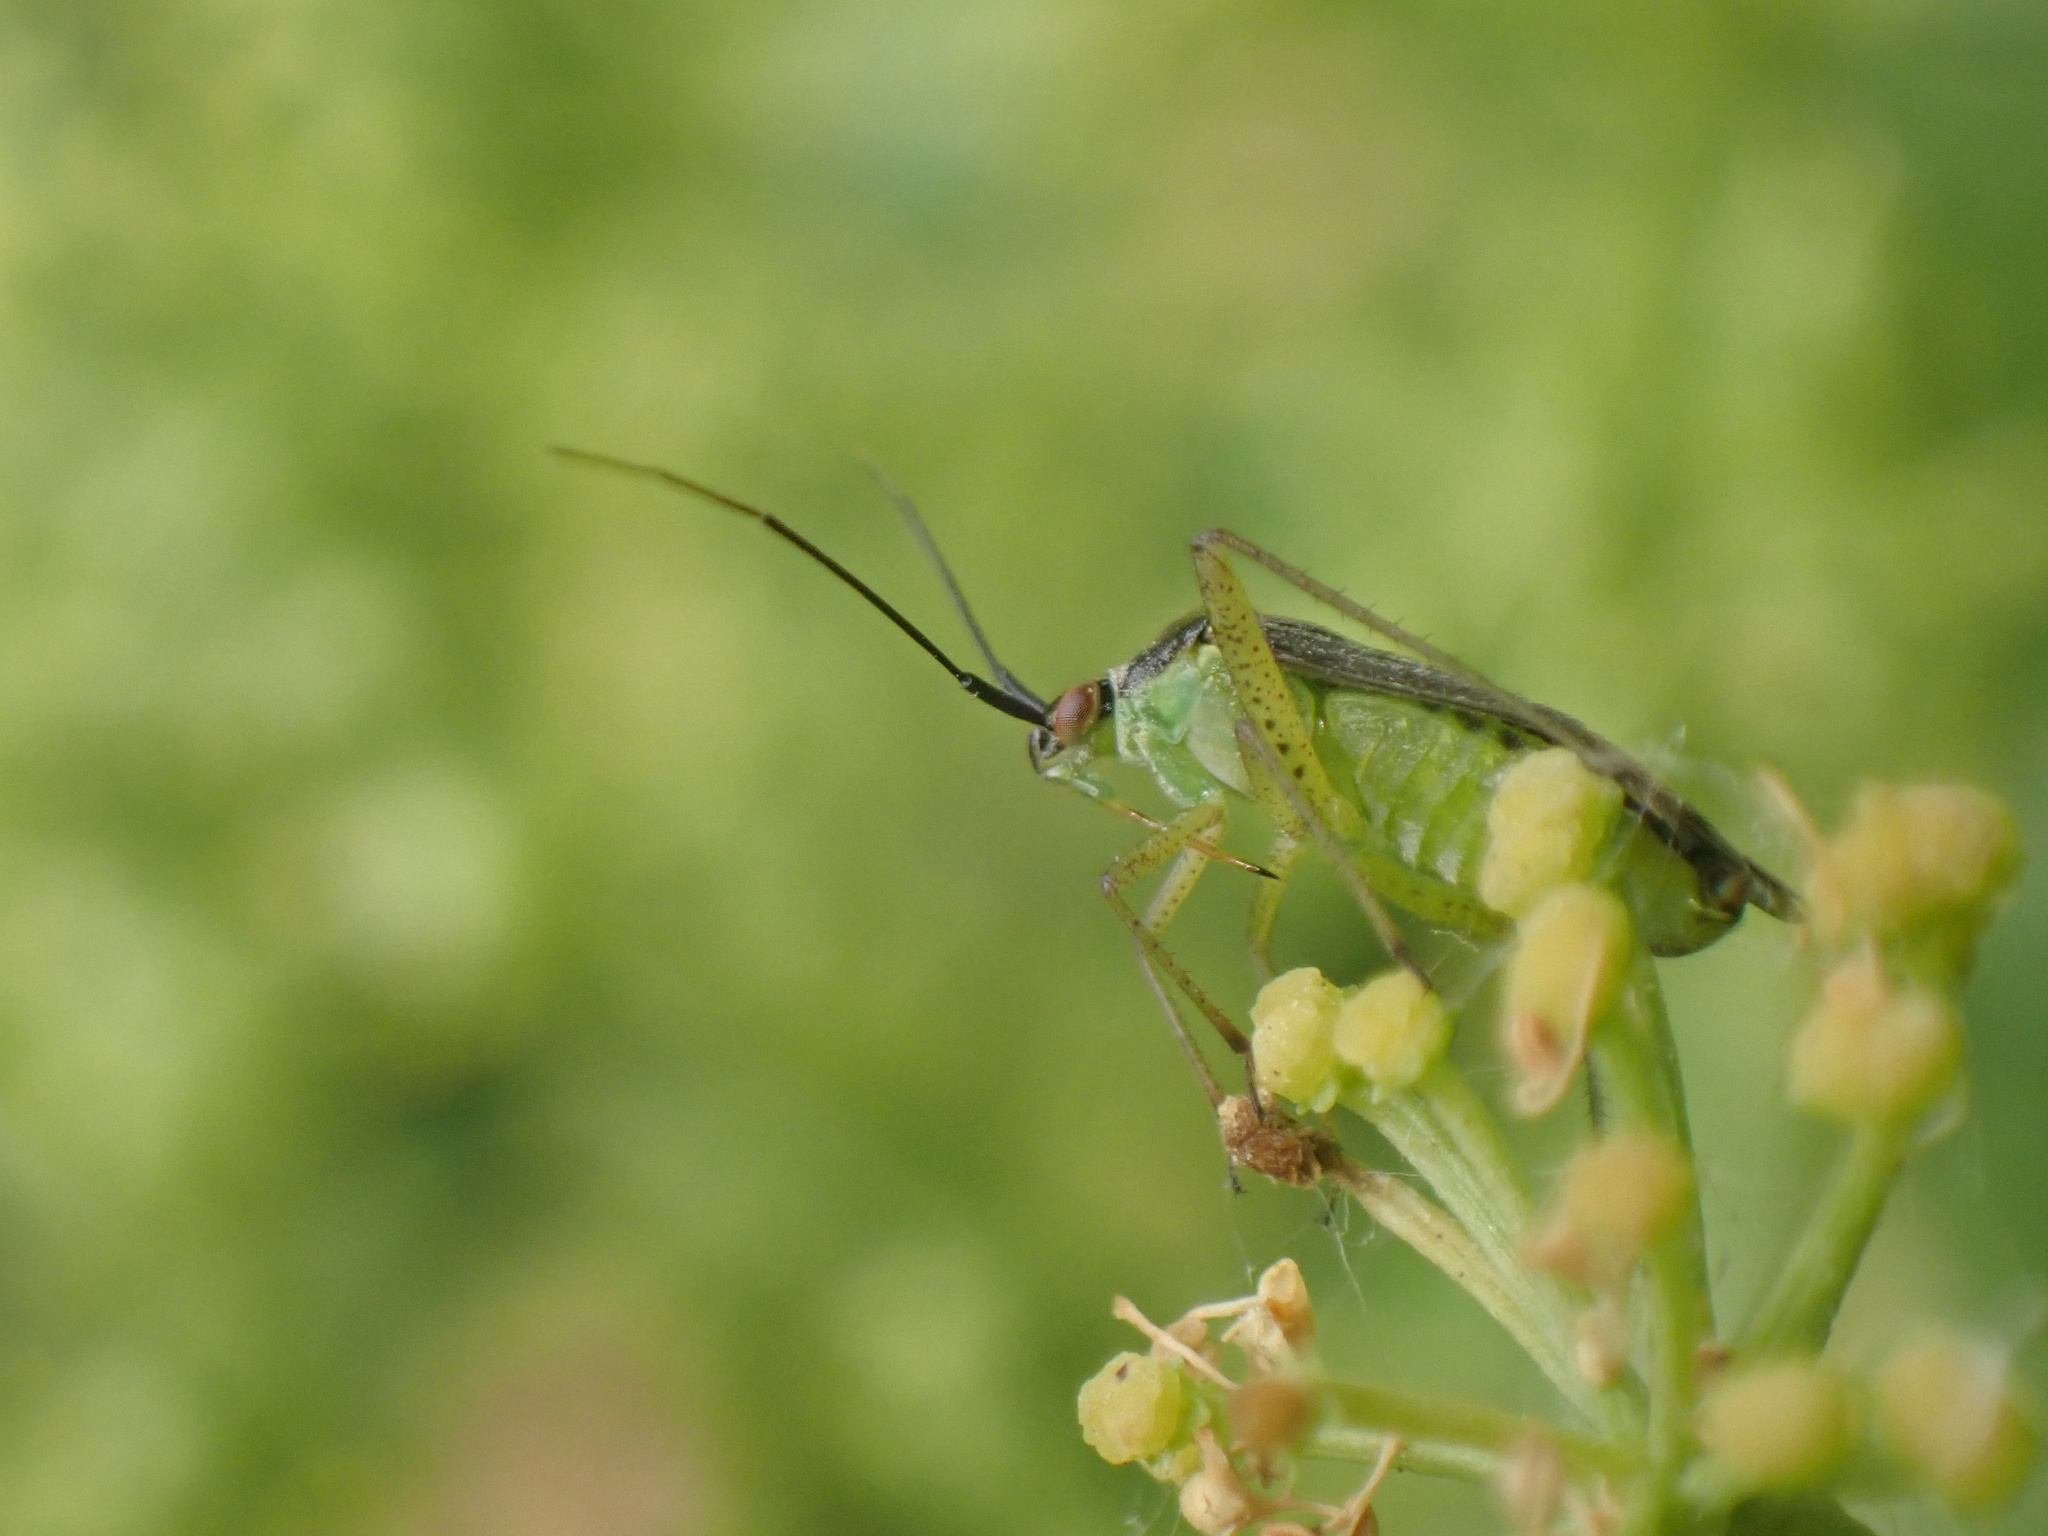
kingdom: Animalia
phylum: Arthropoda
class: Insecta
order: Hemiptera
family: Miridae
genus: Closterotomus
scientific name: Closterotomus trivialis
